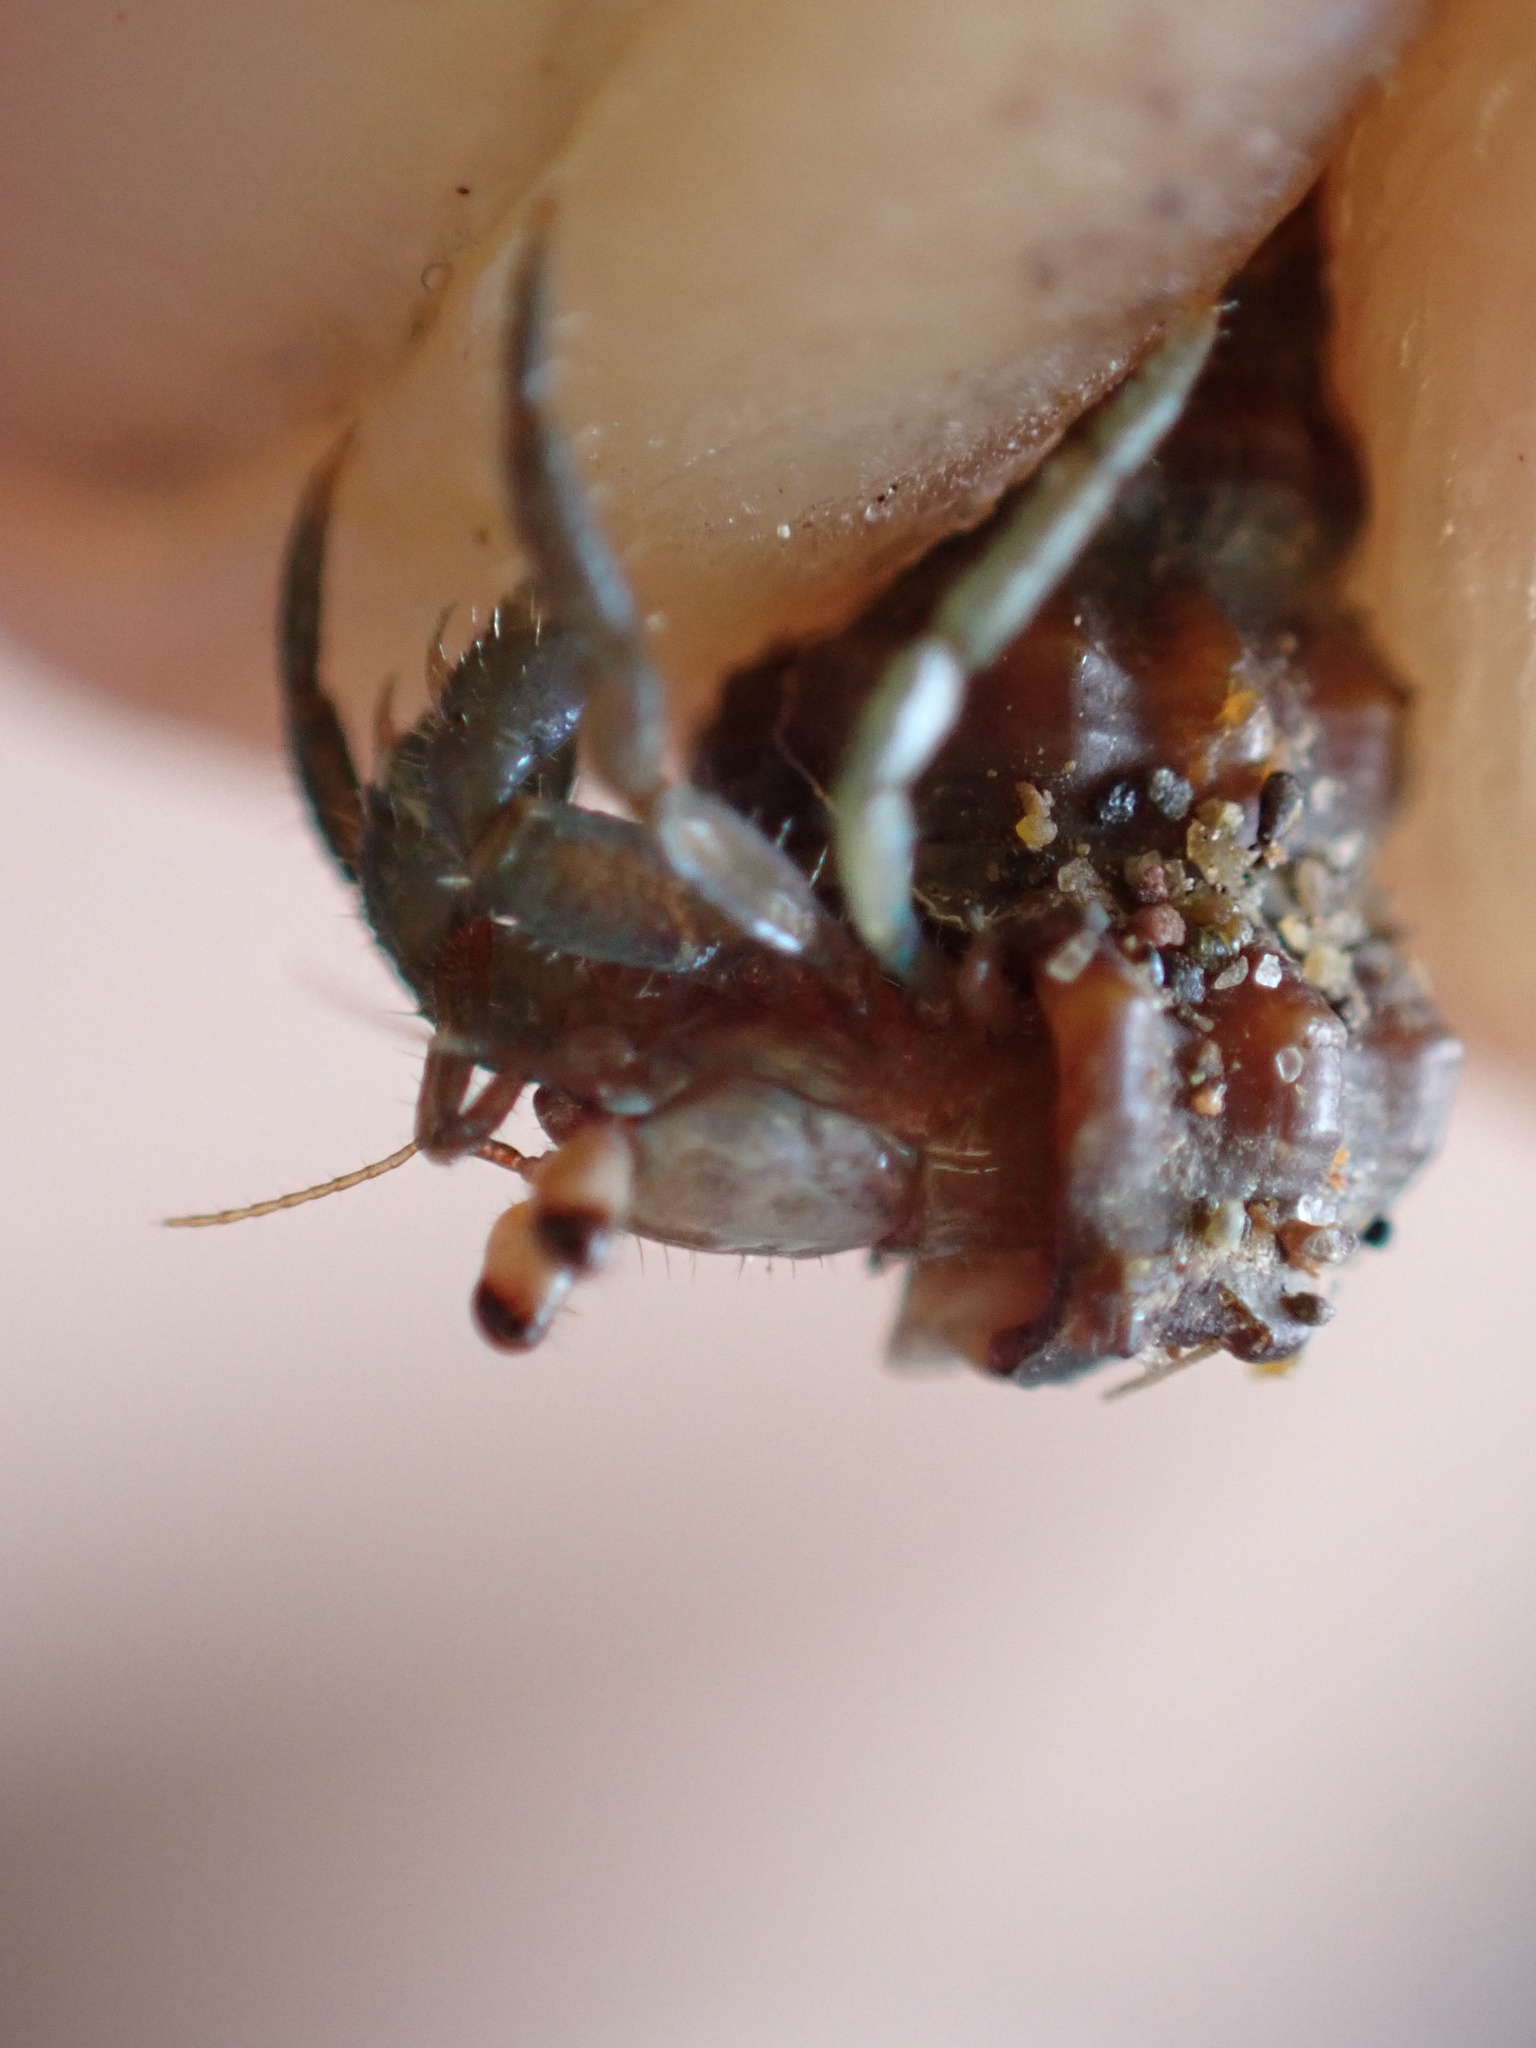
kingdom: Animalia
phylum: Arthropoda
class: Malacostraca
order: Decapoda
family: Coenobitidae
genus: Coenobita
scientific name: Coenobita compressus
